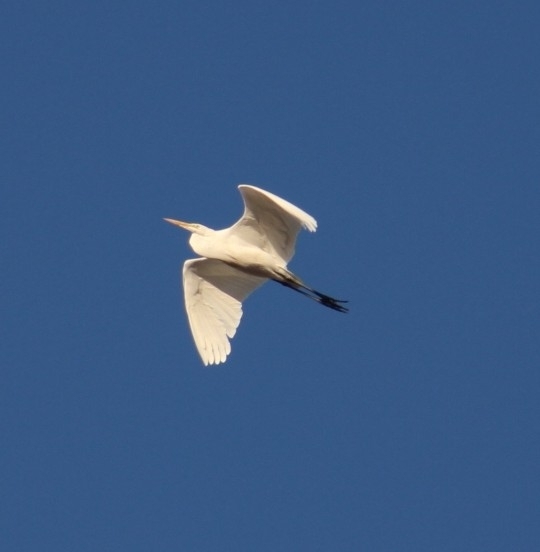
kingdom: Animalia
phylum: Chordata
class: Aves
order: Pelecaniformes
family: Ardeidae
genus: Ardea
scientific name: Ardea alba
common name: Great egret
